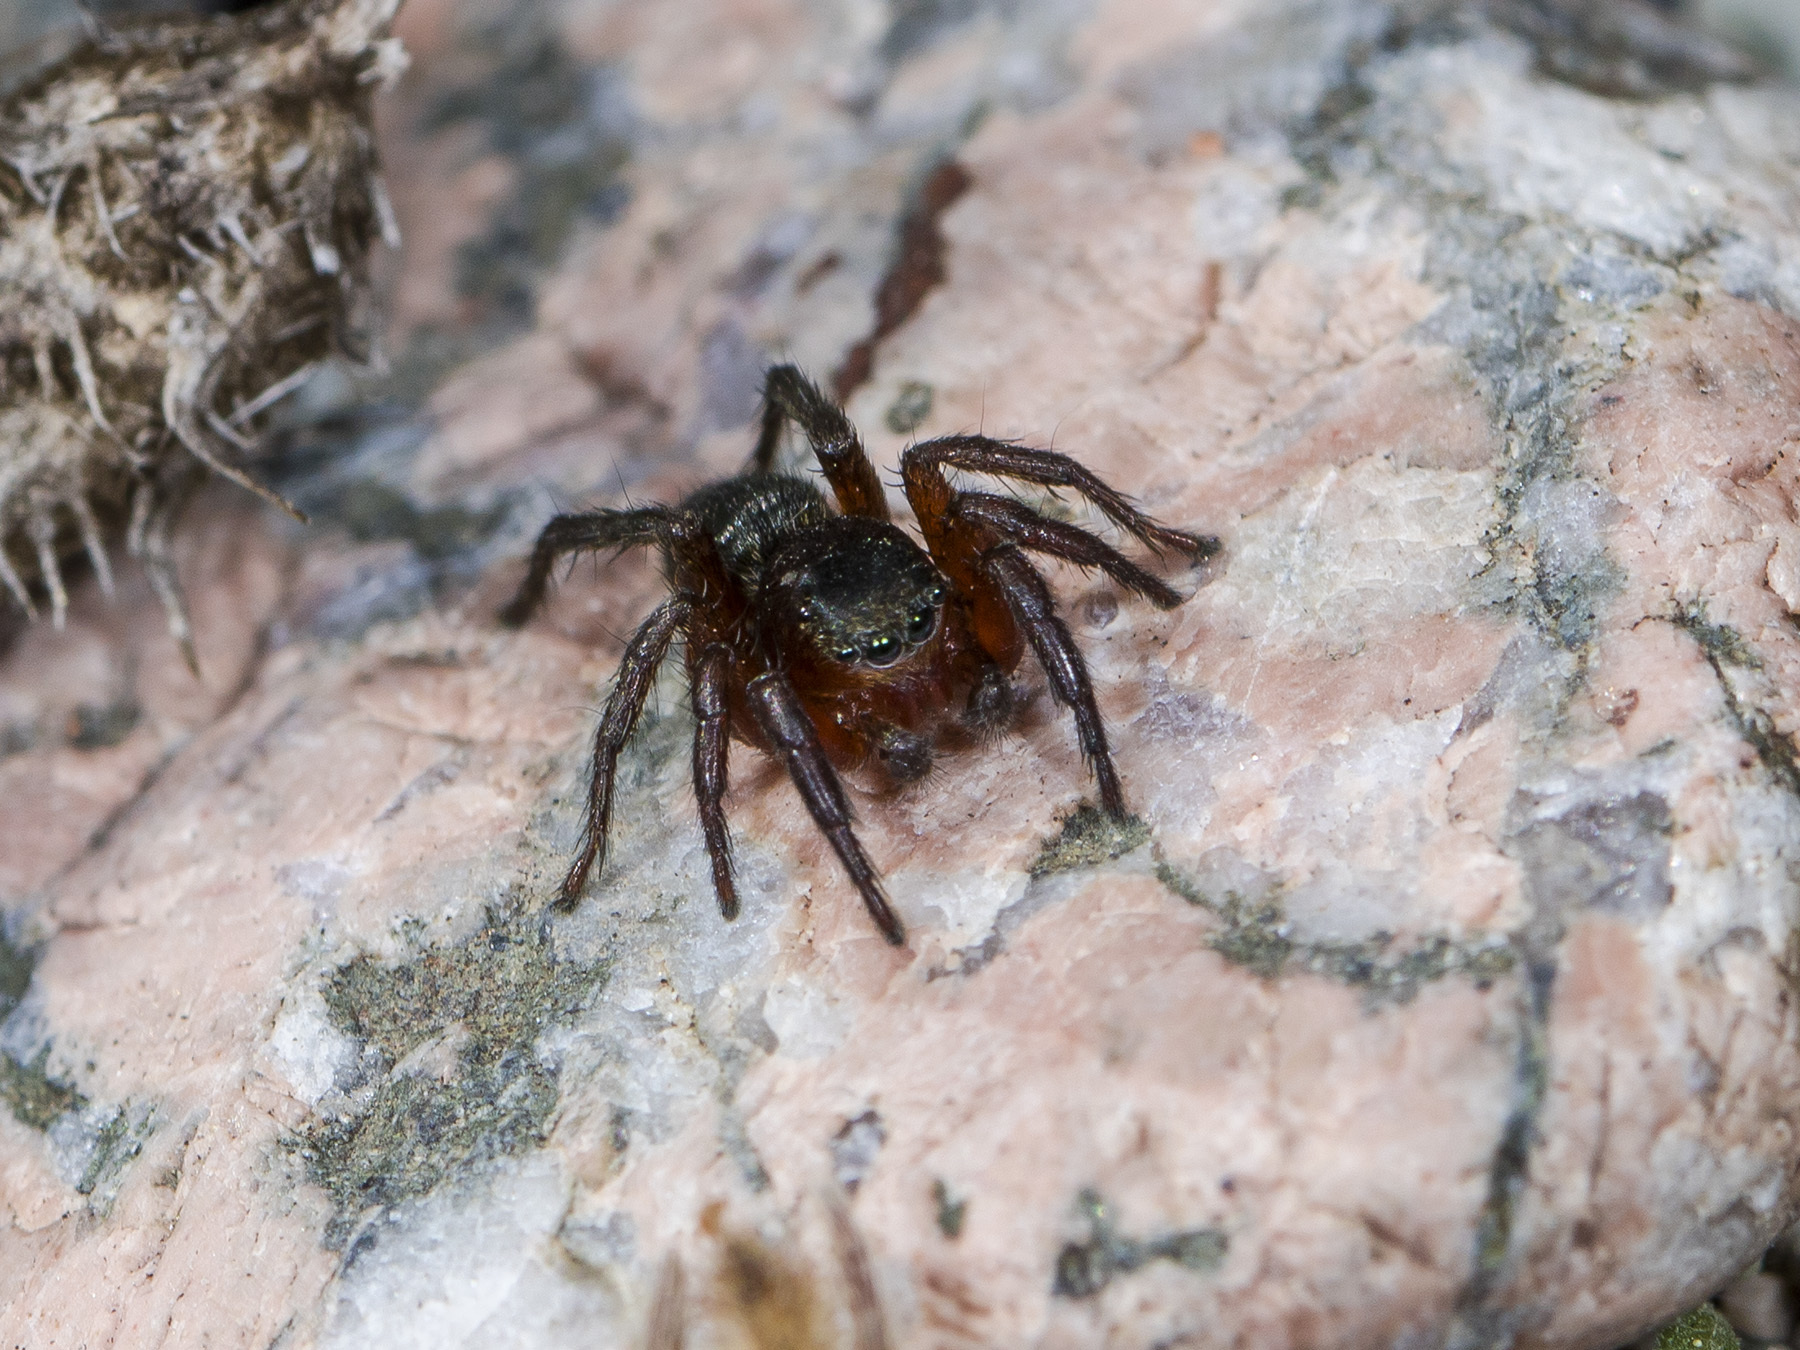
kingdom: Animalia
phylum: Arthropoda
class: Arachnida
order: Araneae
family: Salticidae
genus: Phlegra
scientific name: Phlegra fasciata
